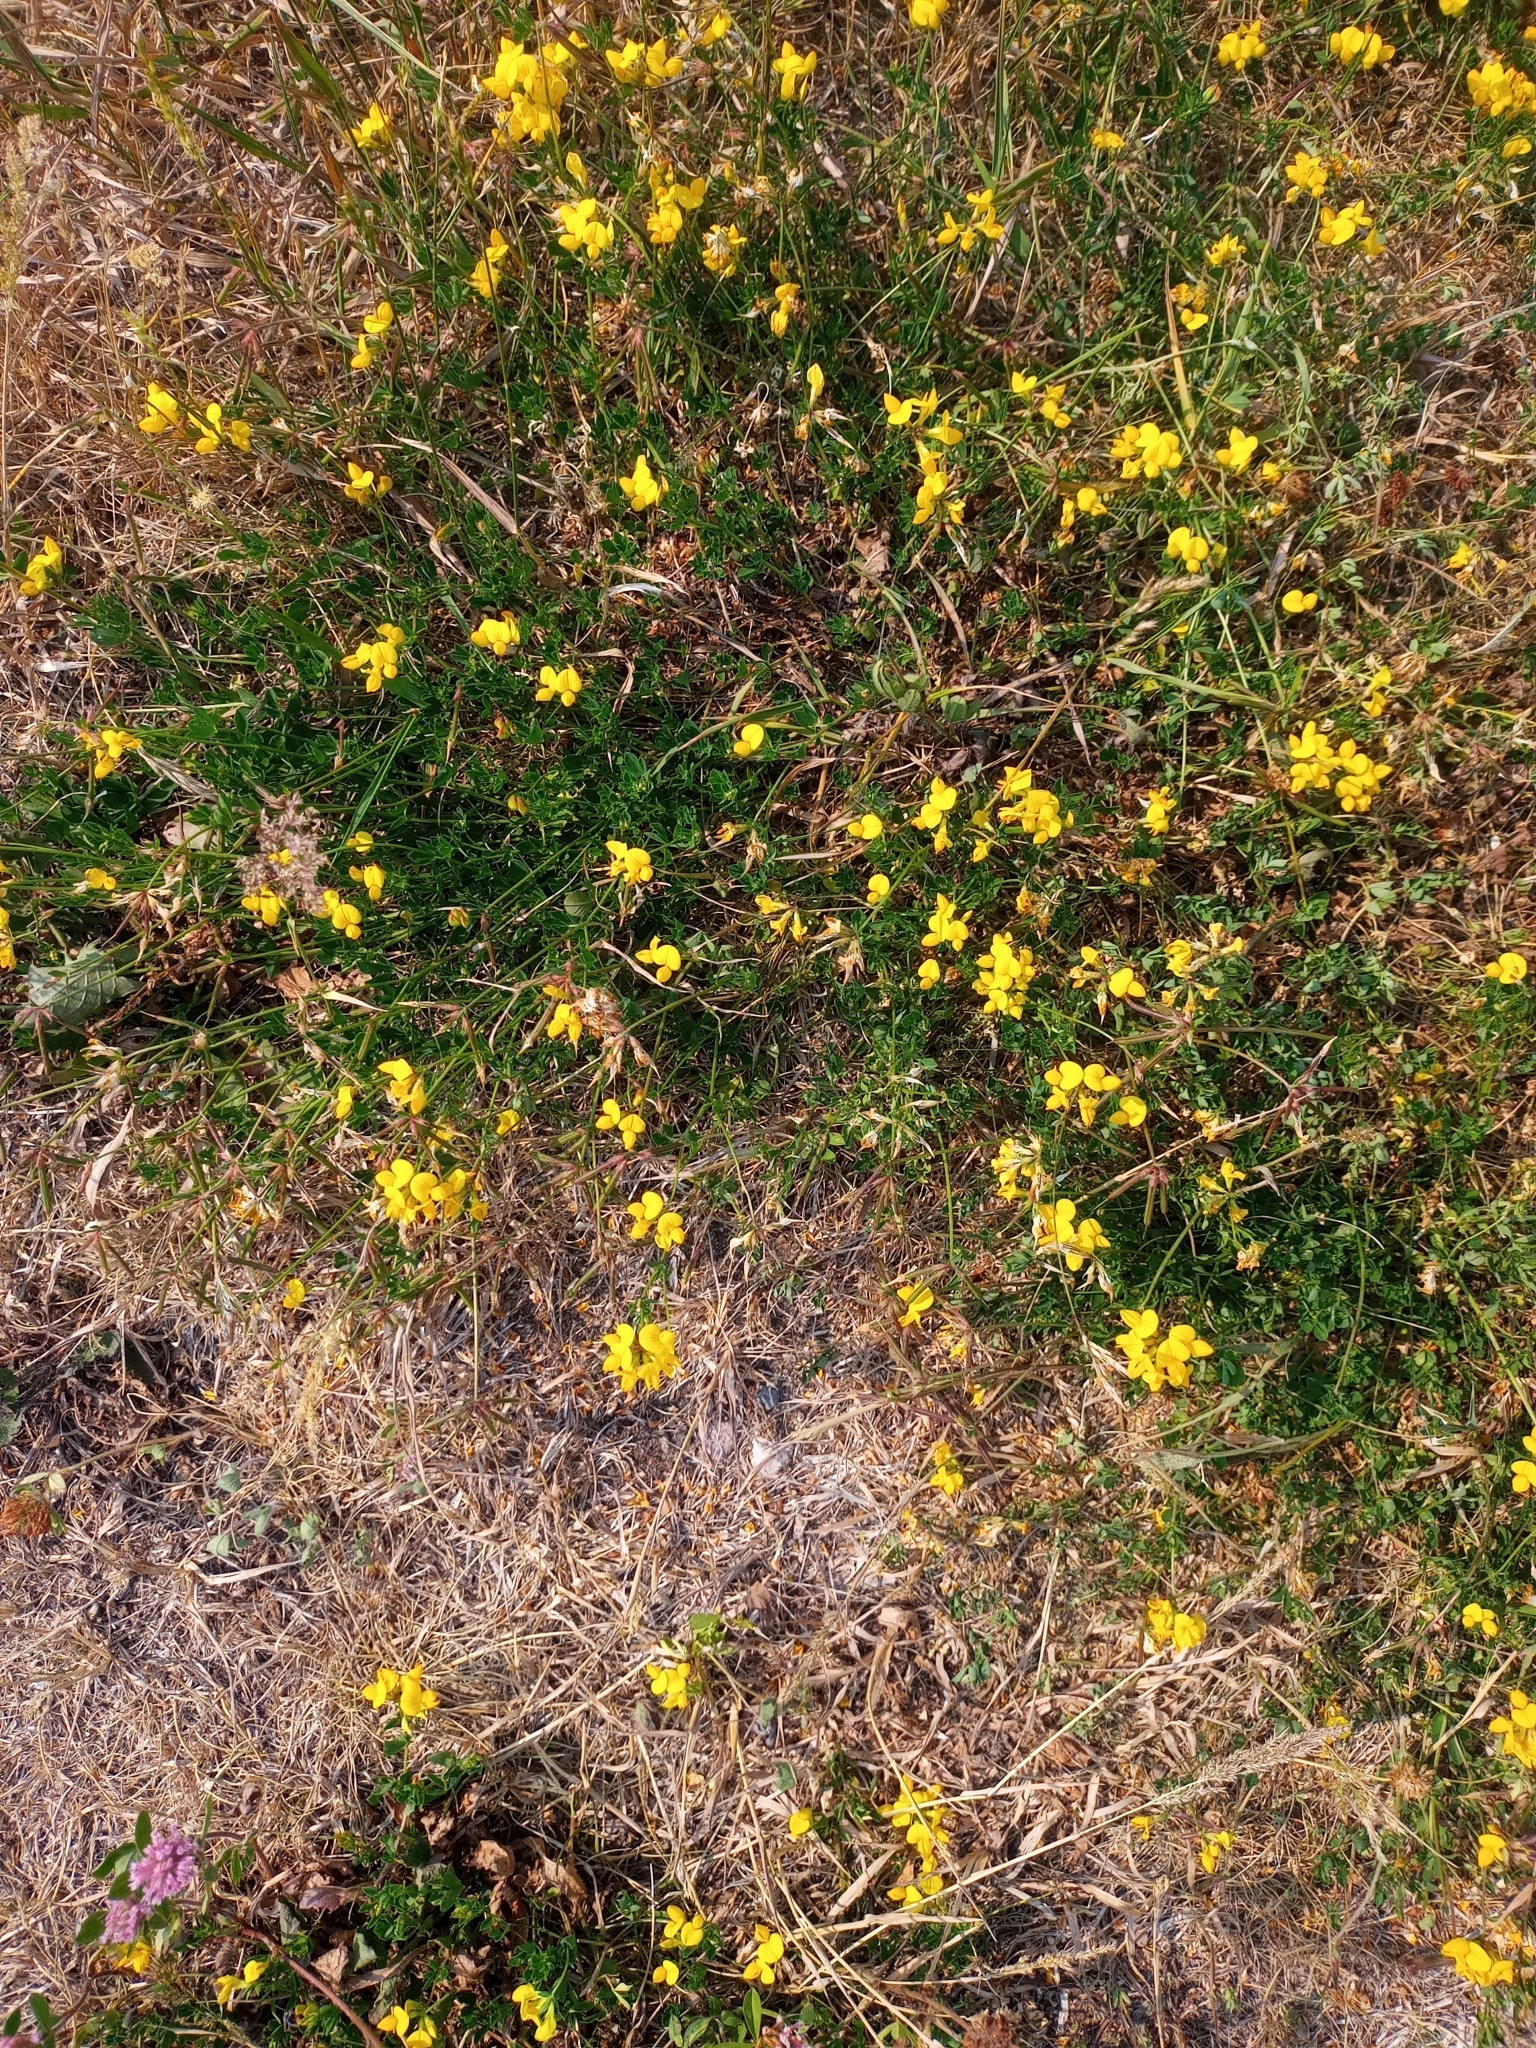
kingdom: Plantae
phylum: Tracheophyta
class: Magnoliopsida
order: Fabales
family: Fabaceae
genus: Lotus
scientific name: Lotus corniculatus
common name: Common bird's-foot-trefoil
